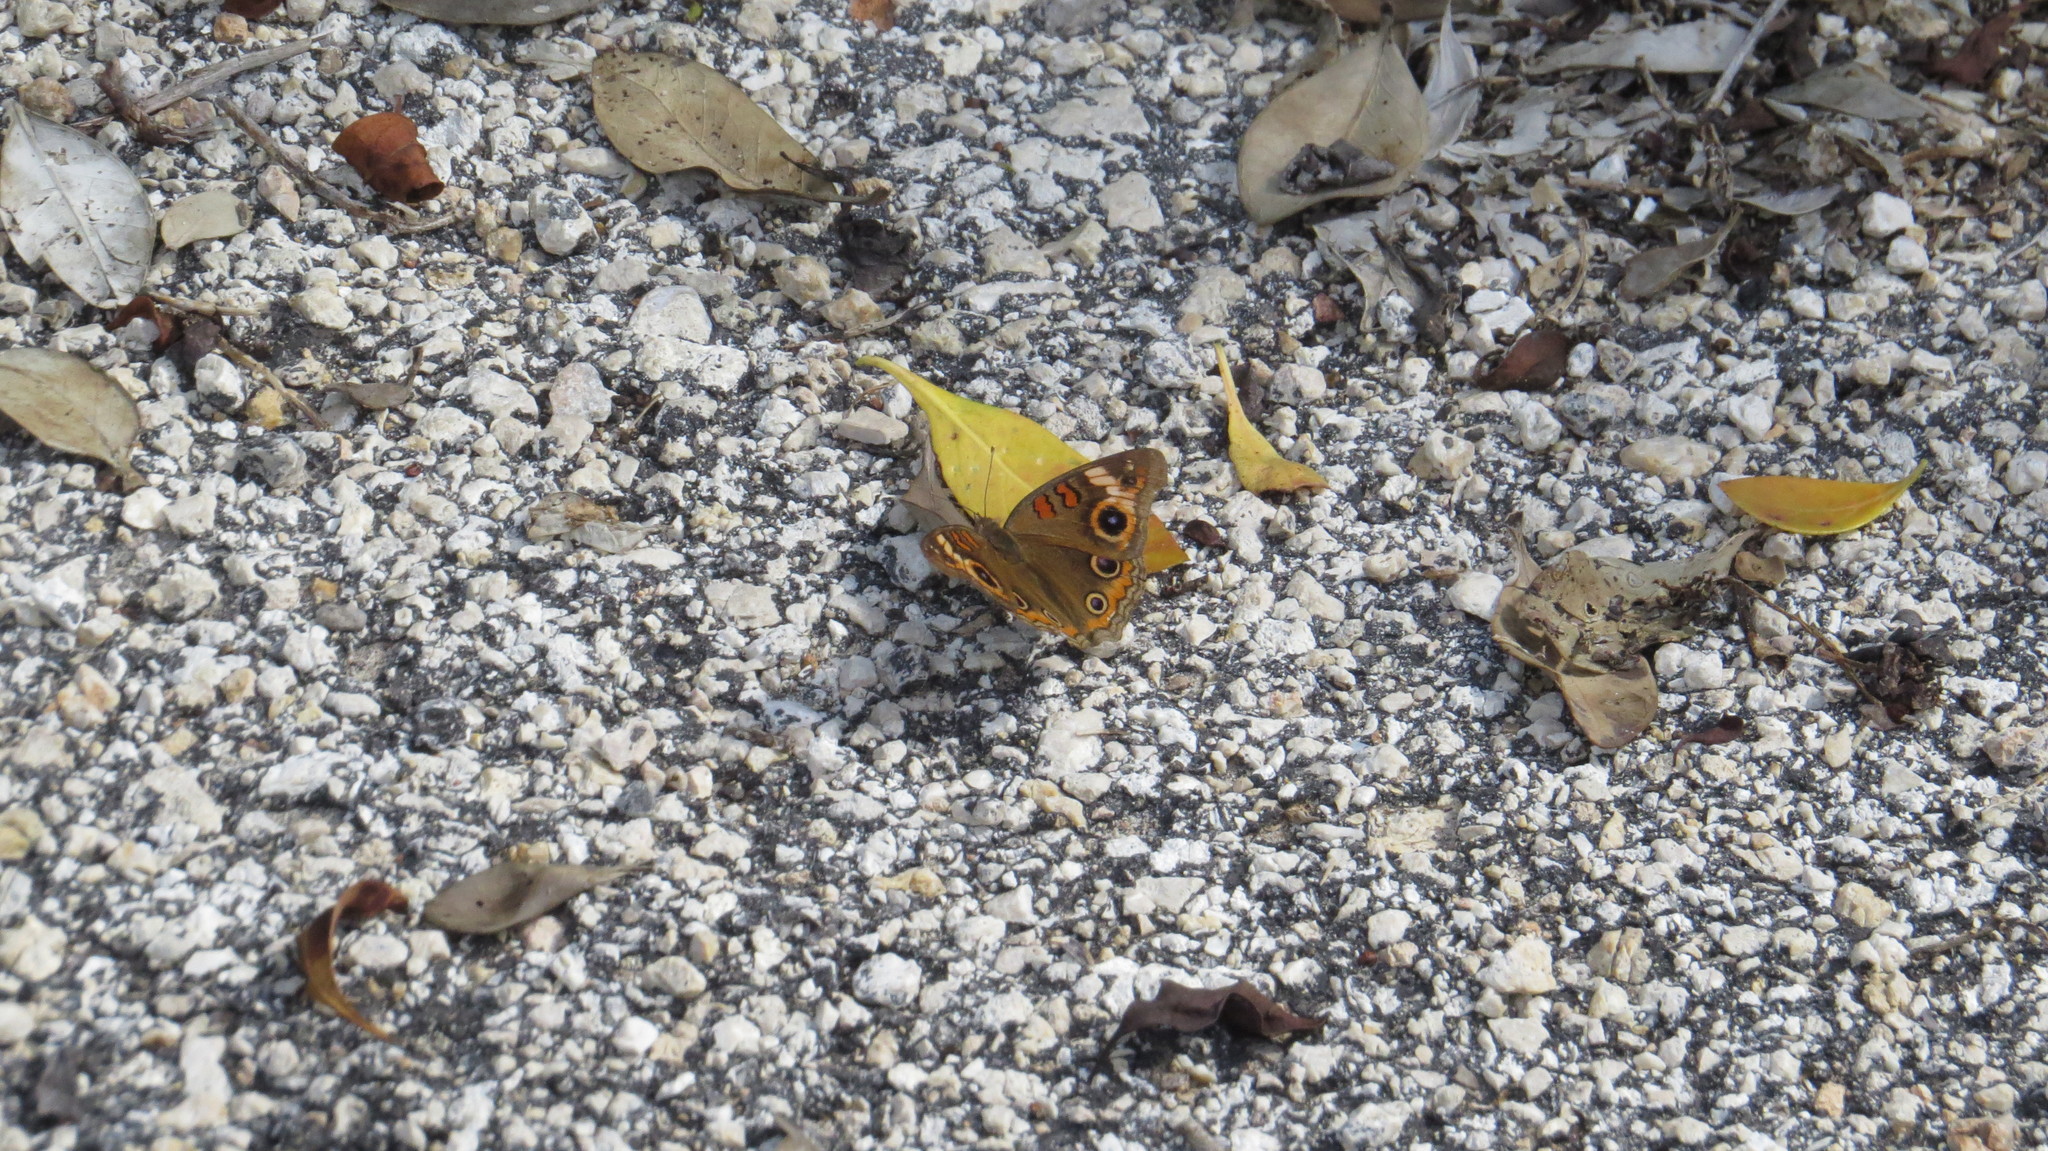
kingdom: Animalia
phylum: Arthropoda
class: Insecta
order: Lepidoptera
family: Nymphalidae
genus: Junonia
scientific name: Junonia neildi
